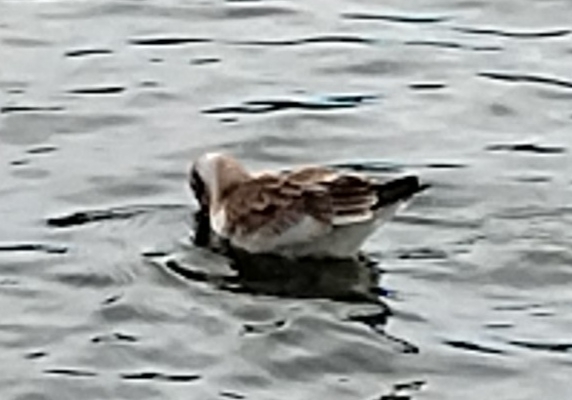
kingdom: Animalia
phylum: Chordata
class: Aves
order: Charadriiformes
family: Laridae
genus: Chroicocephalus
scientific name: Chroicocephalus ridibundus
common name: Black-headed gull
